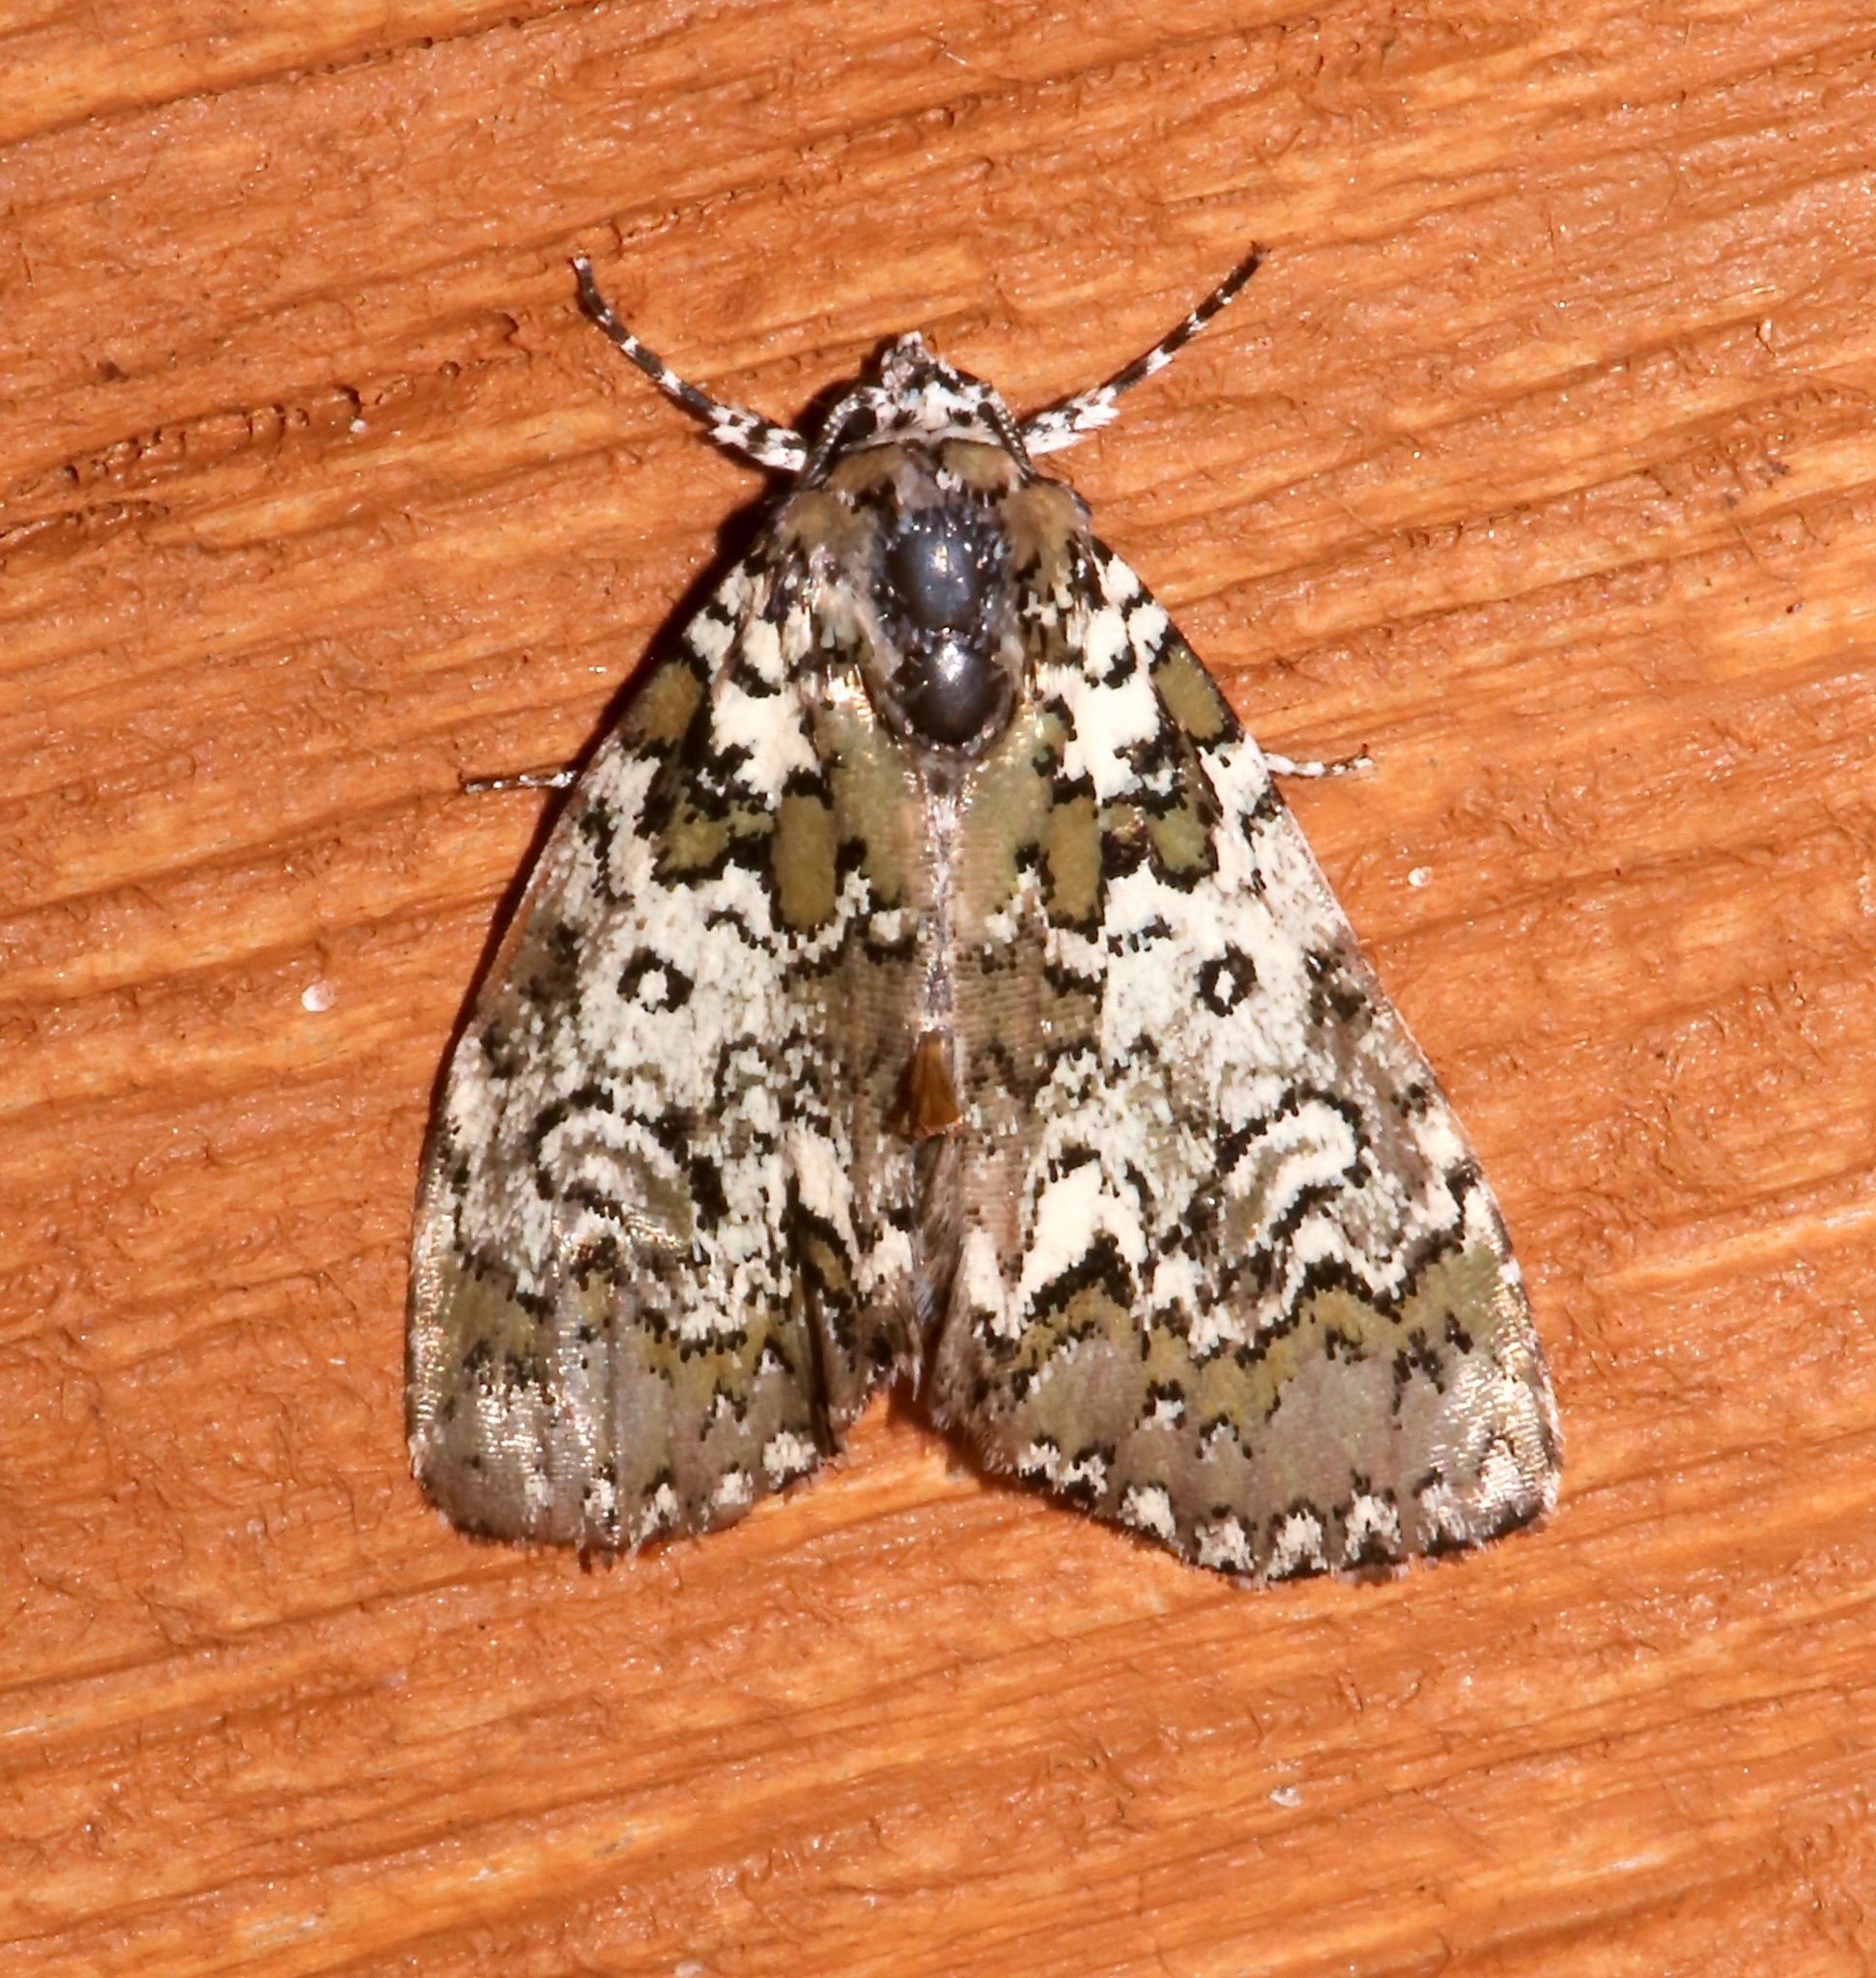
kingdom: Animalia
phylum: Arthropoda
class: Insecta
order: Lepidoptera
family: Noctuidae
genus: Cerma
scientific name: Cerma cora
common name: Bird dropping moth
